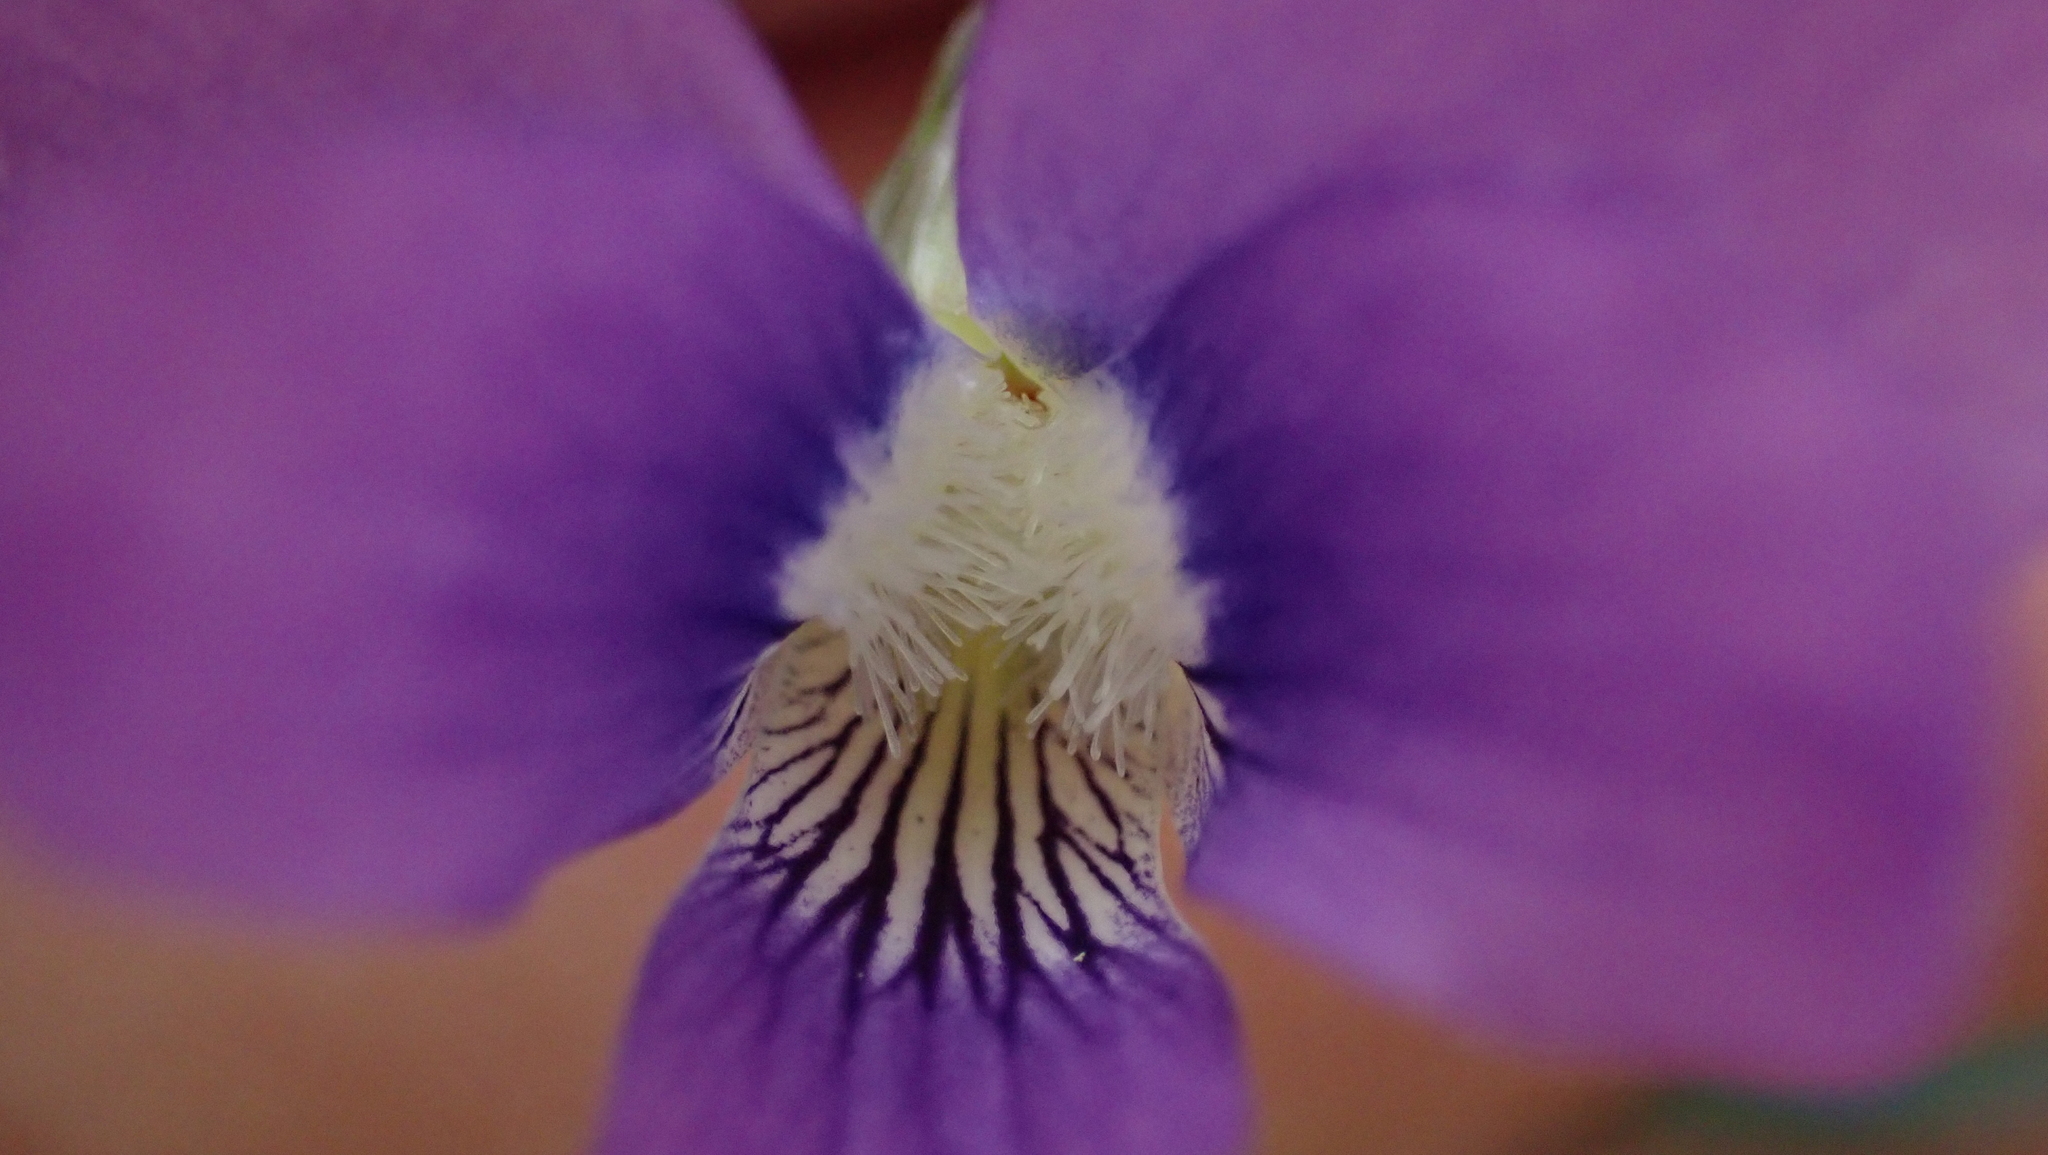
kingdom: Plantae
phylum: Tracheophyta
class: Magnoliopsida
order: Malpighiales
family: Violaceae
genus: Viola
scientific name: Viola sororia
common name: Dooryard violet
